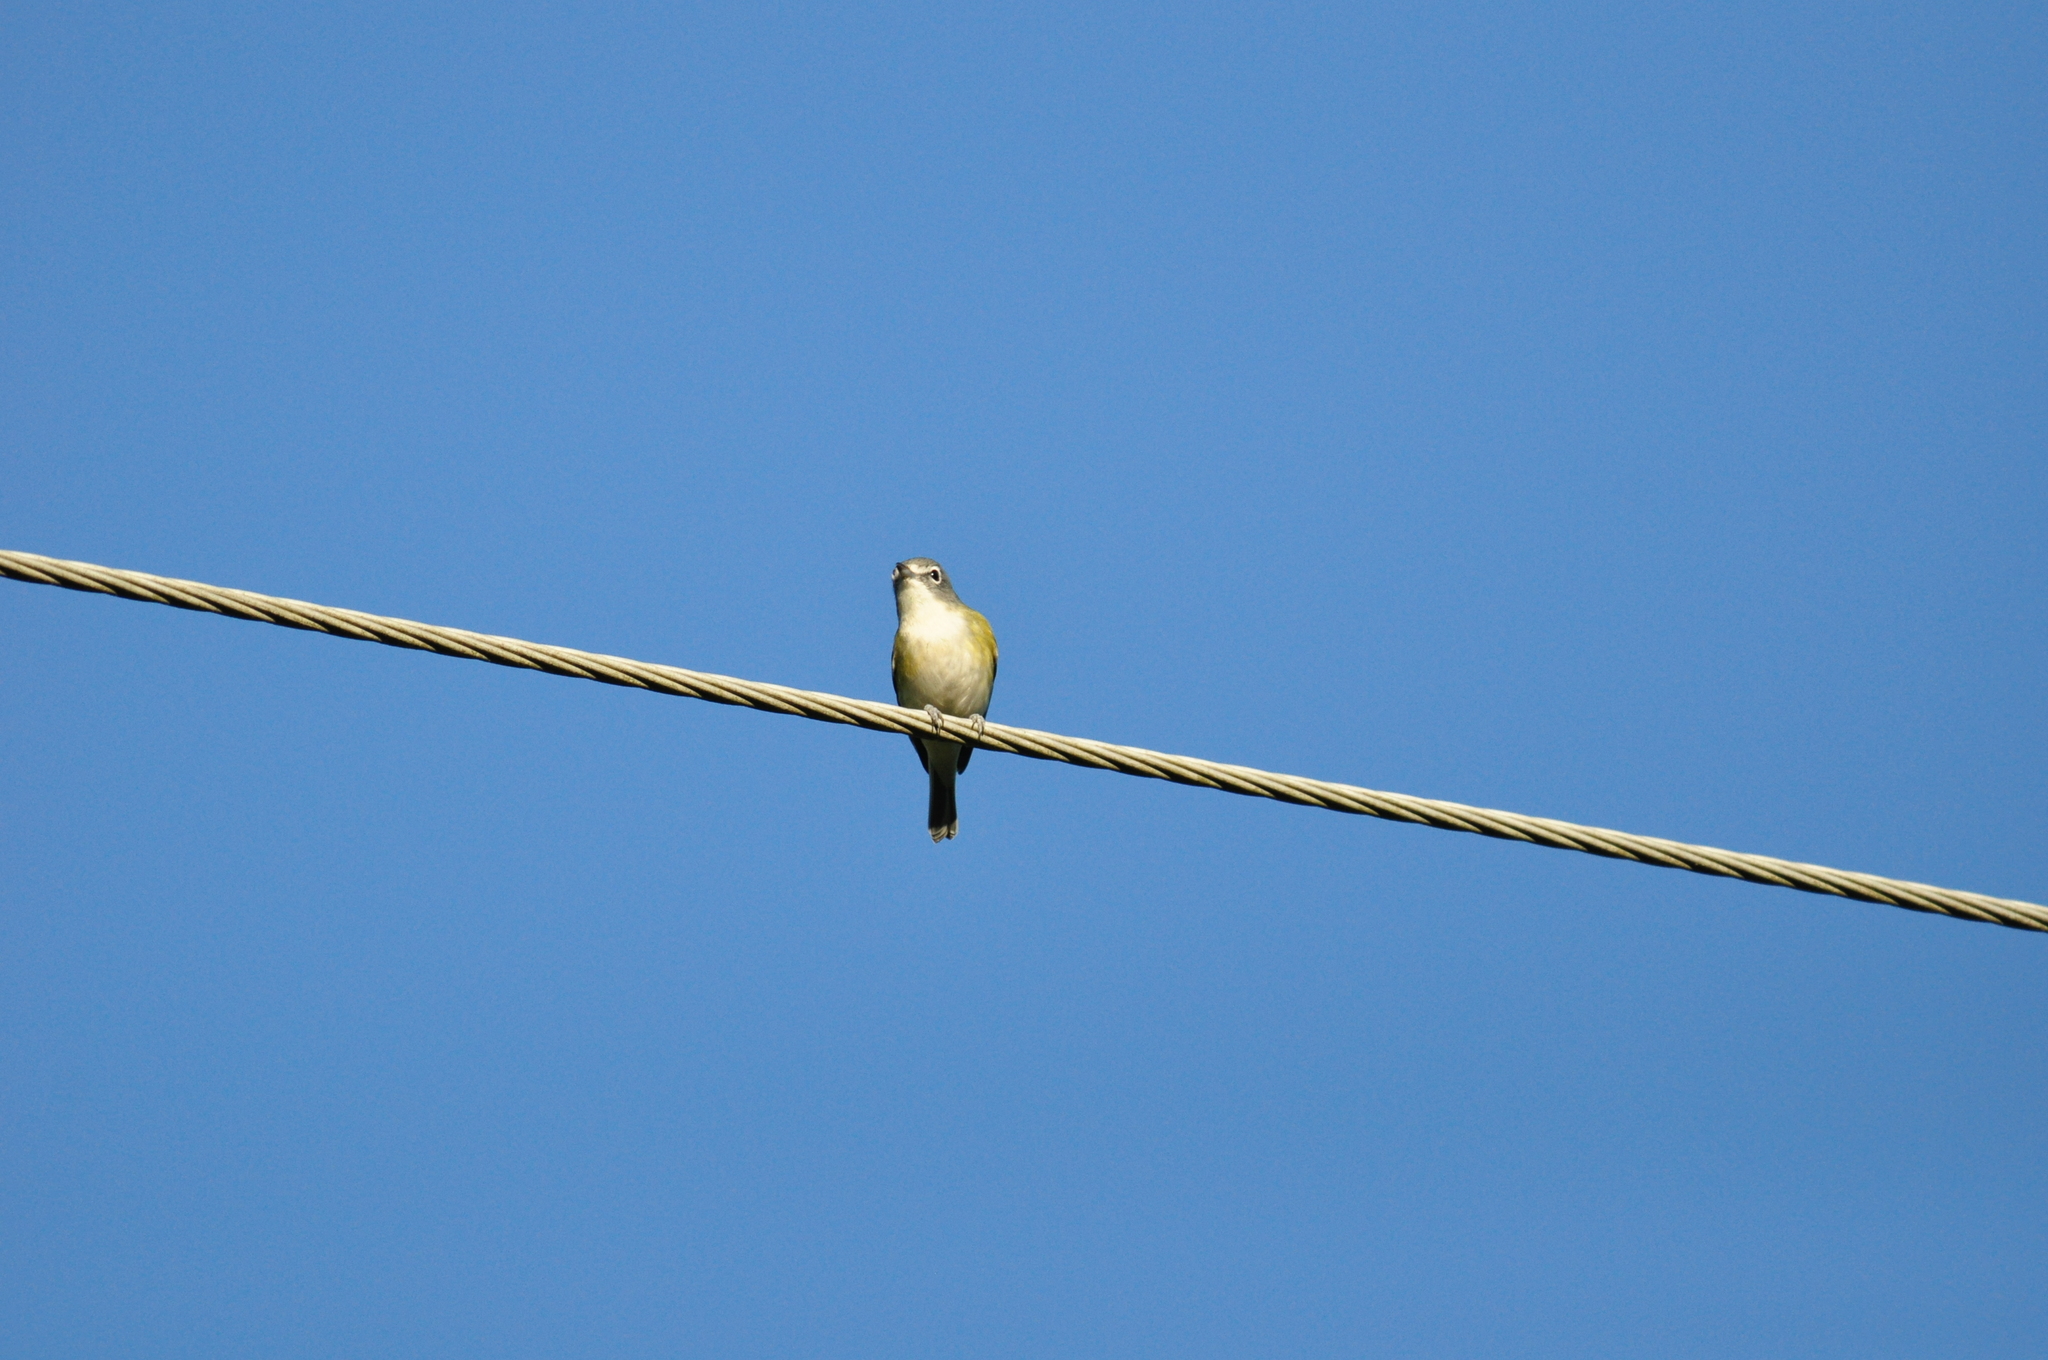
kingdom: Animalia
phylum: Chordata
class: Aves
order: Passeriformes
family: Vireonidae
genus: Vireo
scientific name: Vireo solitarius
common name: Blue-headed vireo
